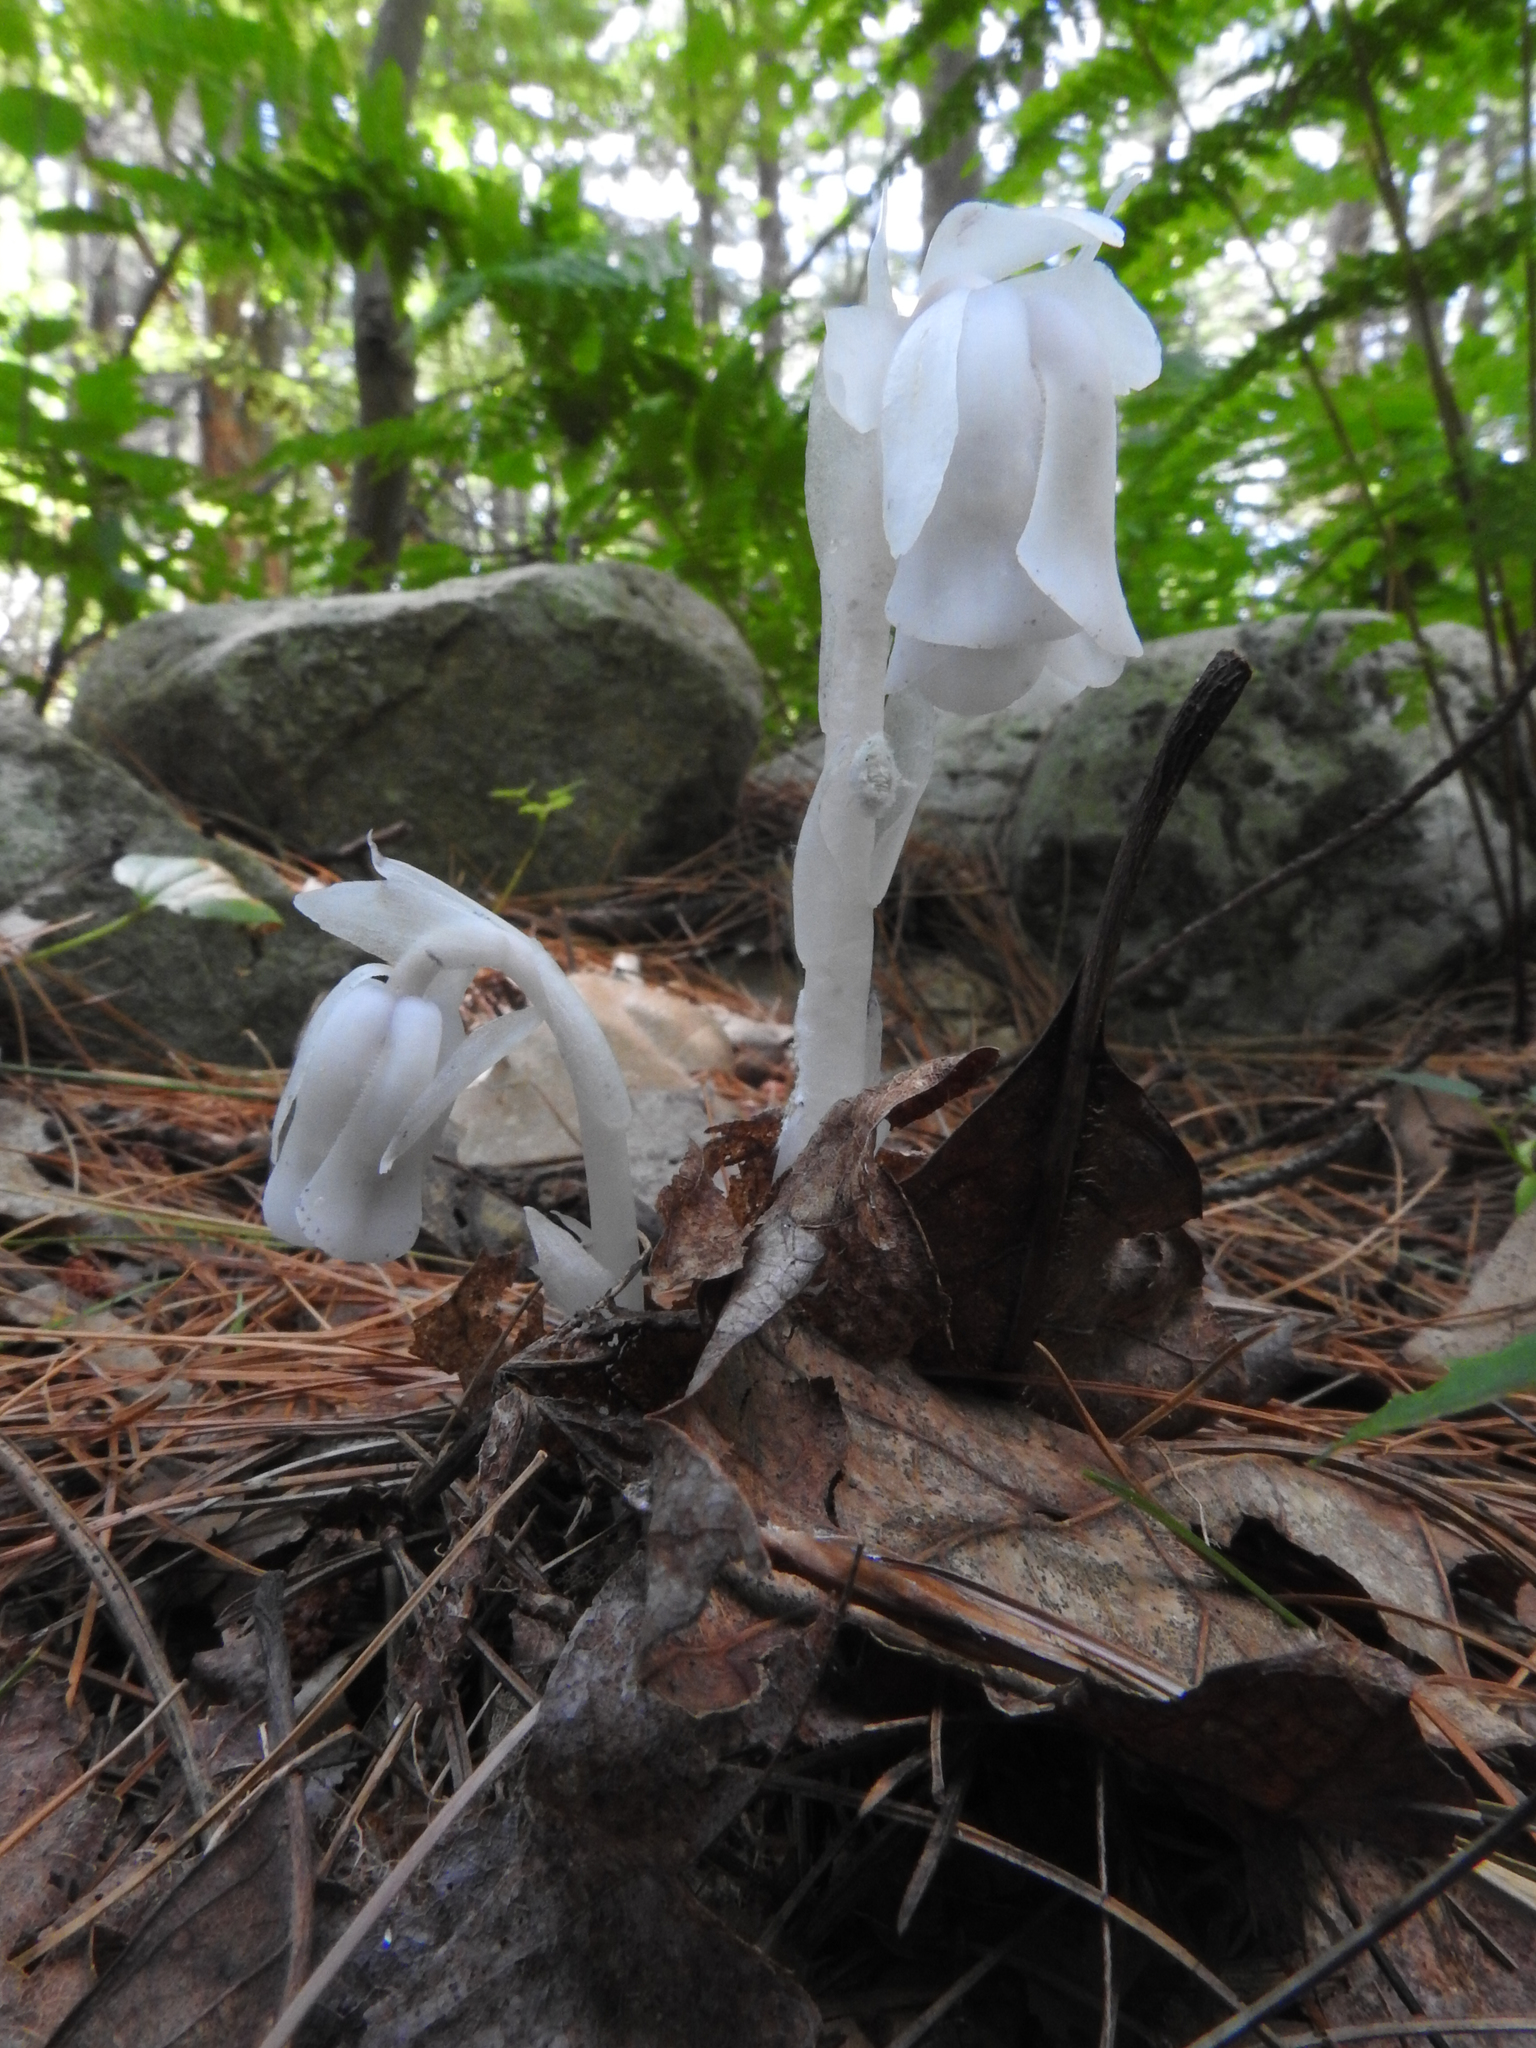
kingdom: Plantae
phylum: Tracheophyta
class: Magnoliopsida
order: Ericales
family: Ericaceae
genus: Monotropa
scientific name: Monotropa uniflora
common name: Convulsion root
